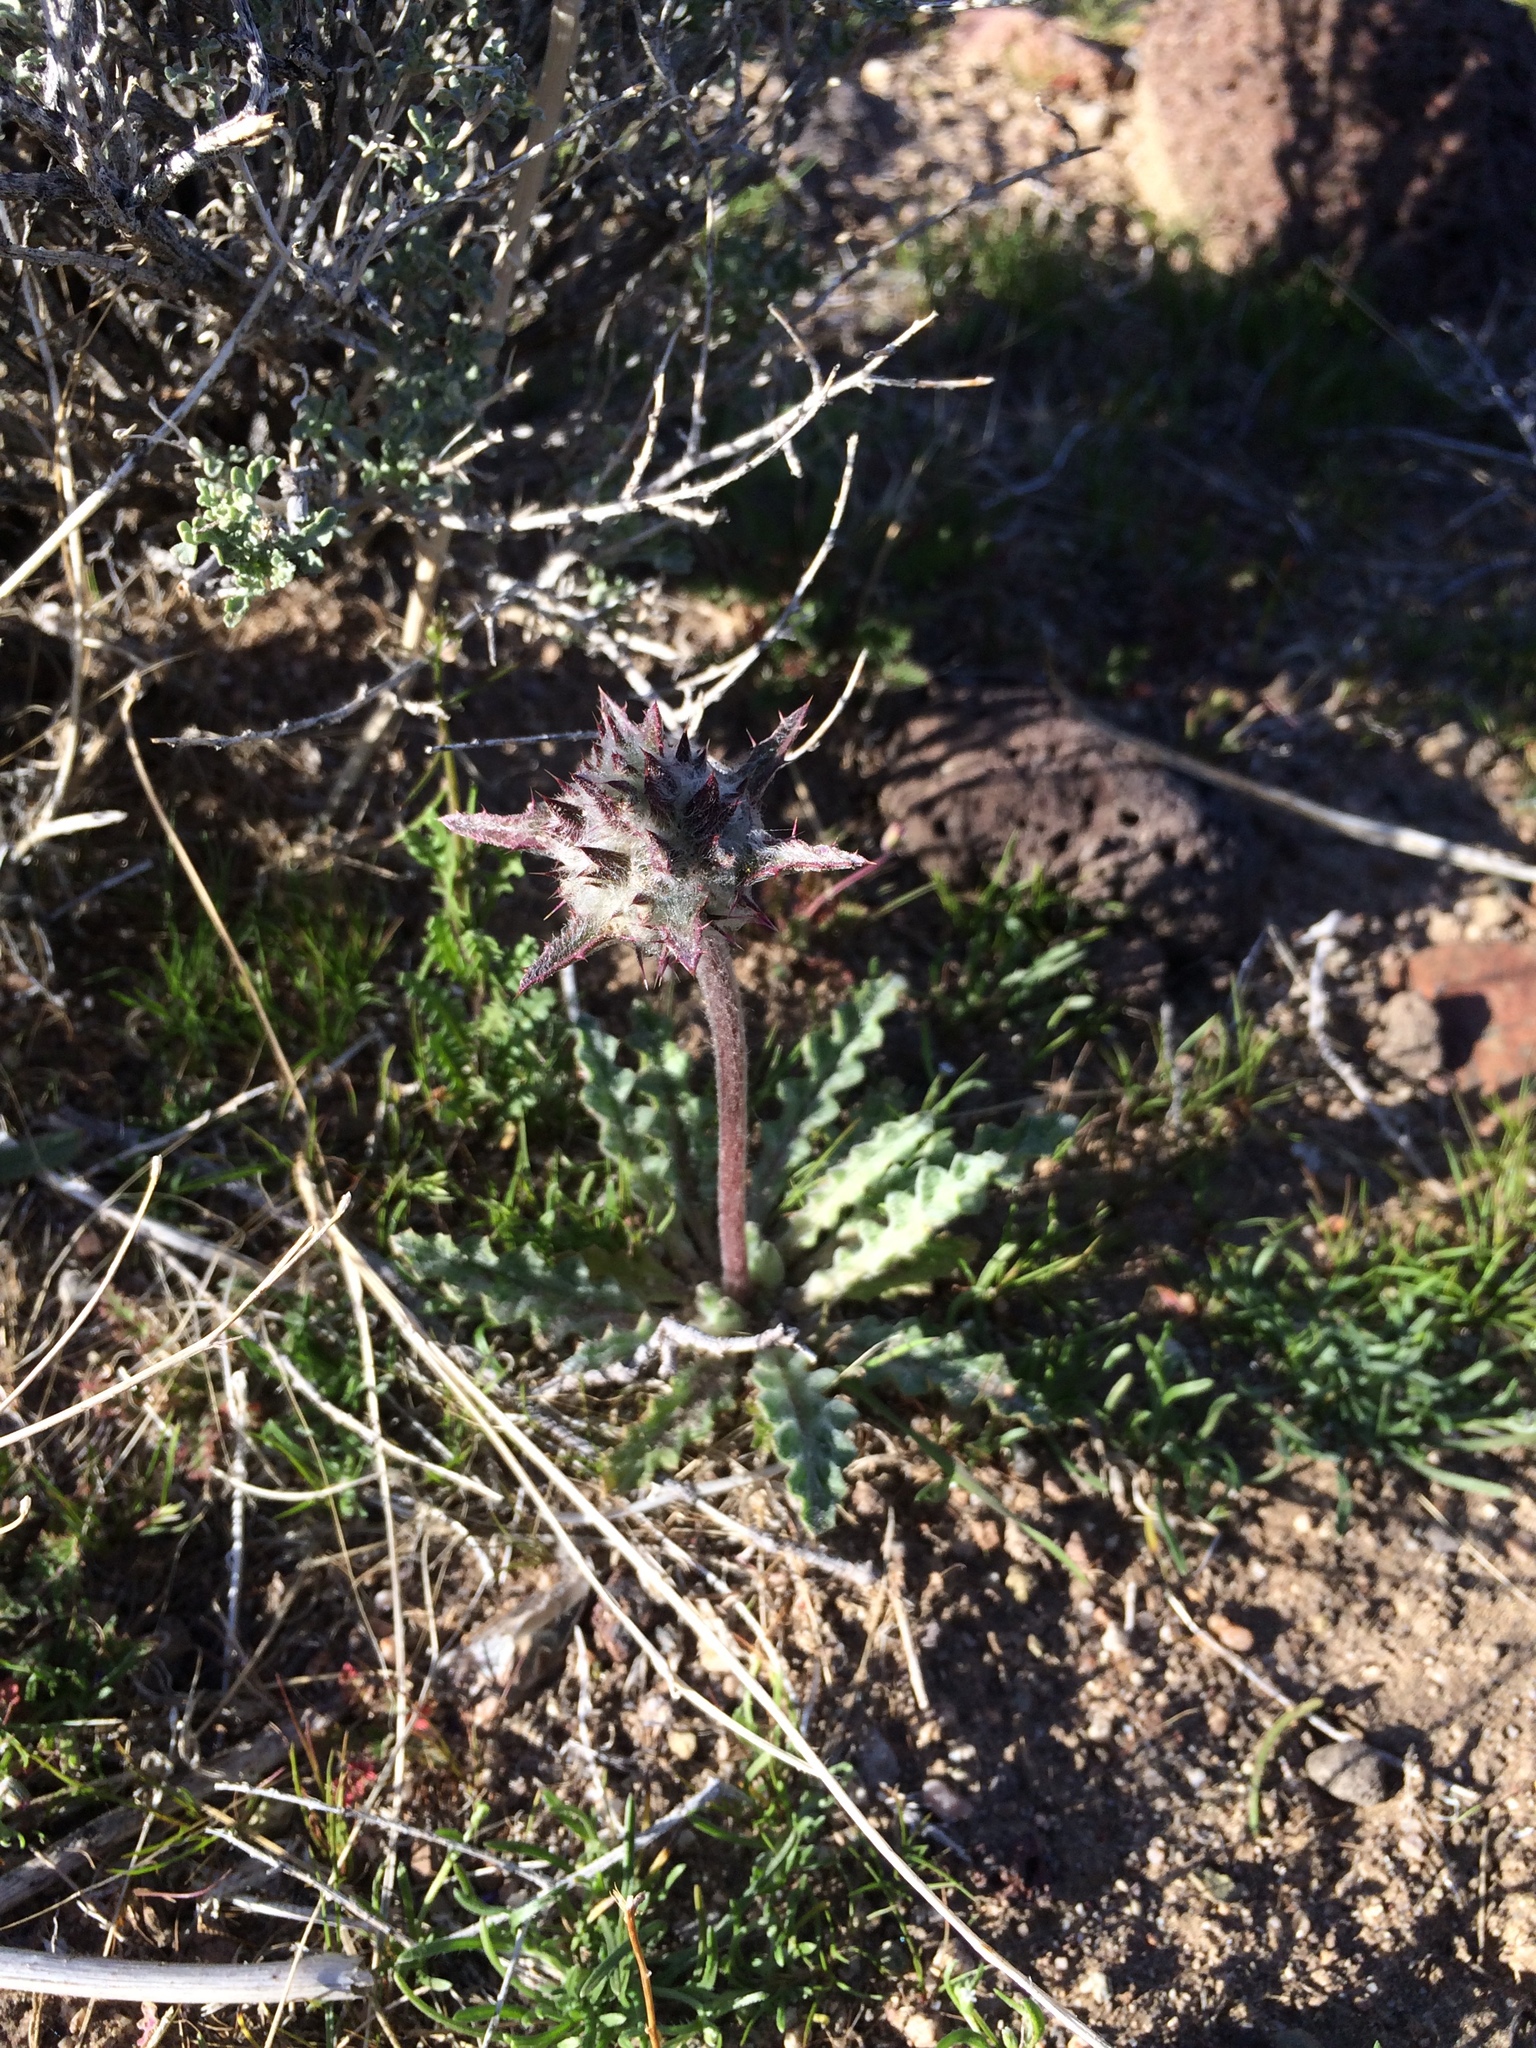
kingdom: Plantae
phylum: Tracheophyta
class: Magnoliopsida
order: Lamiales
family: Lamiaceae
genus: Salvia
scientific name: Salvia carduacea
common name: Thistle sage
